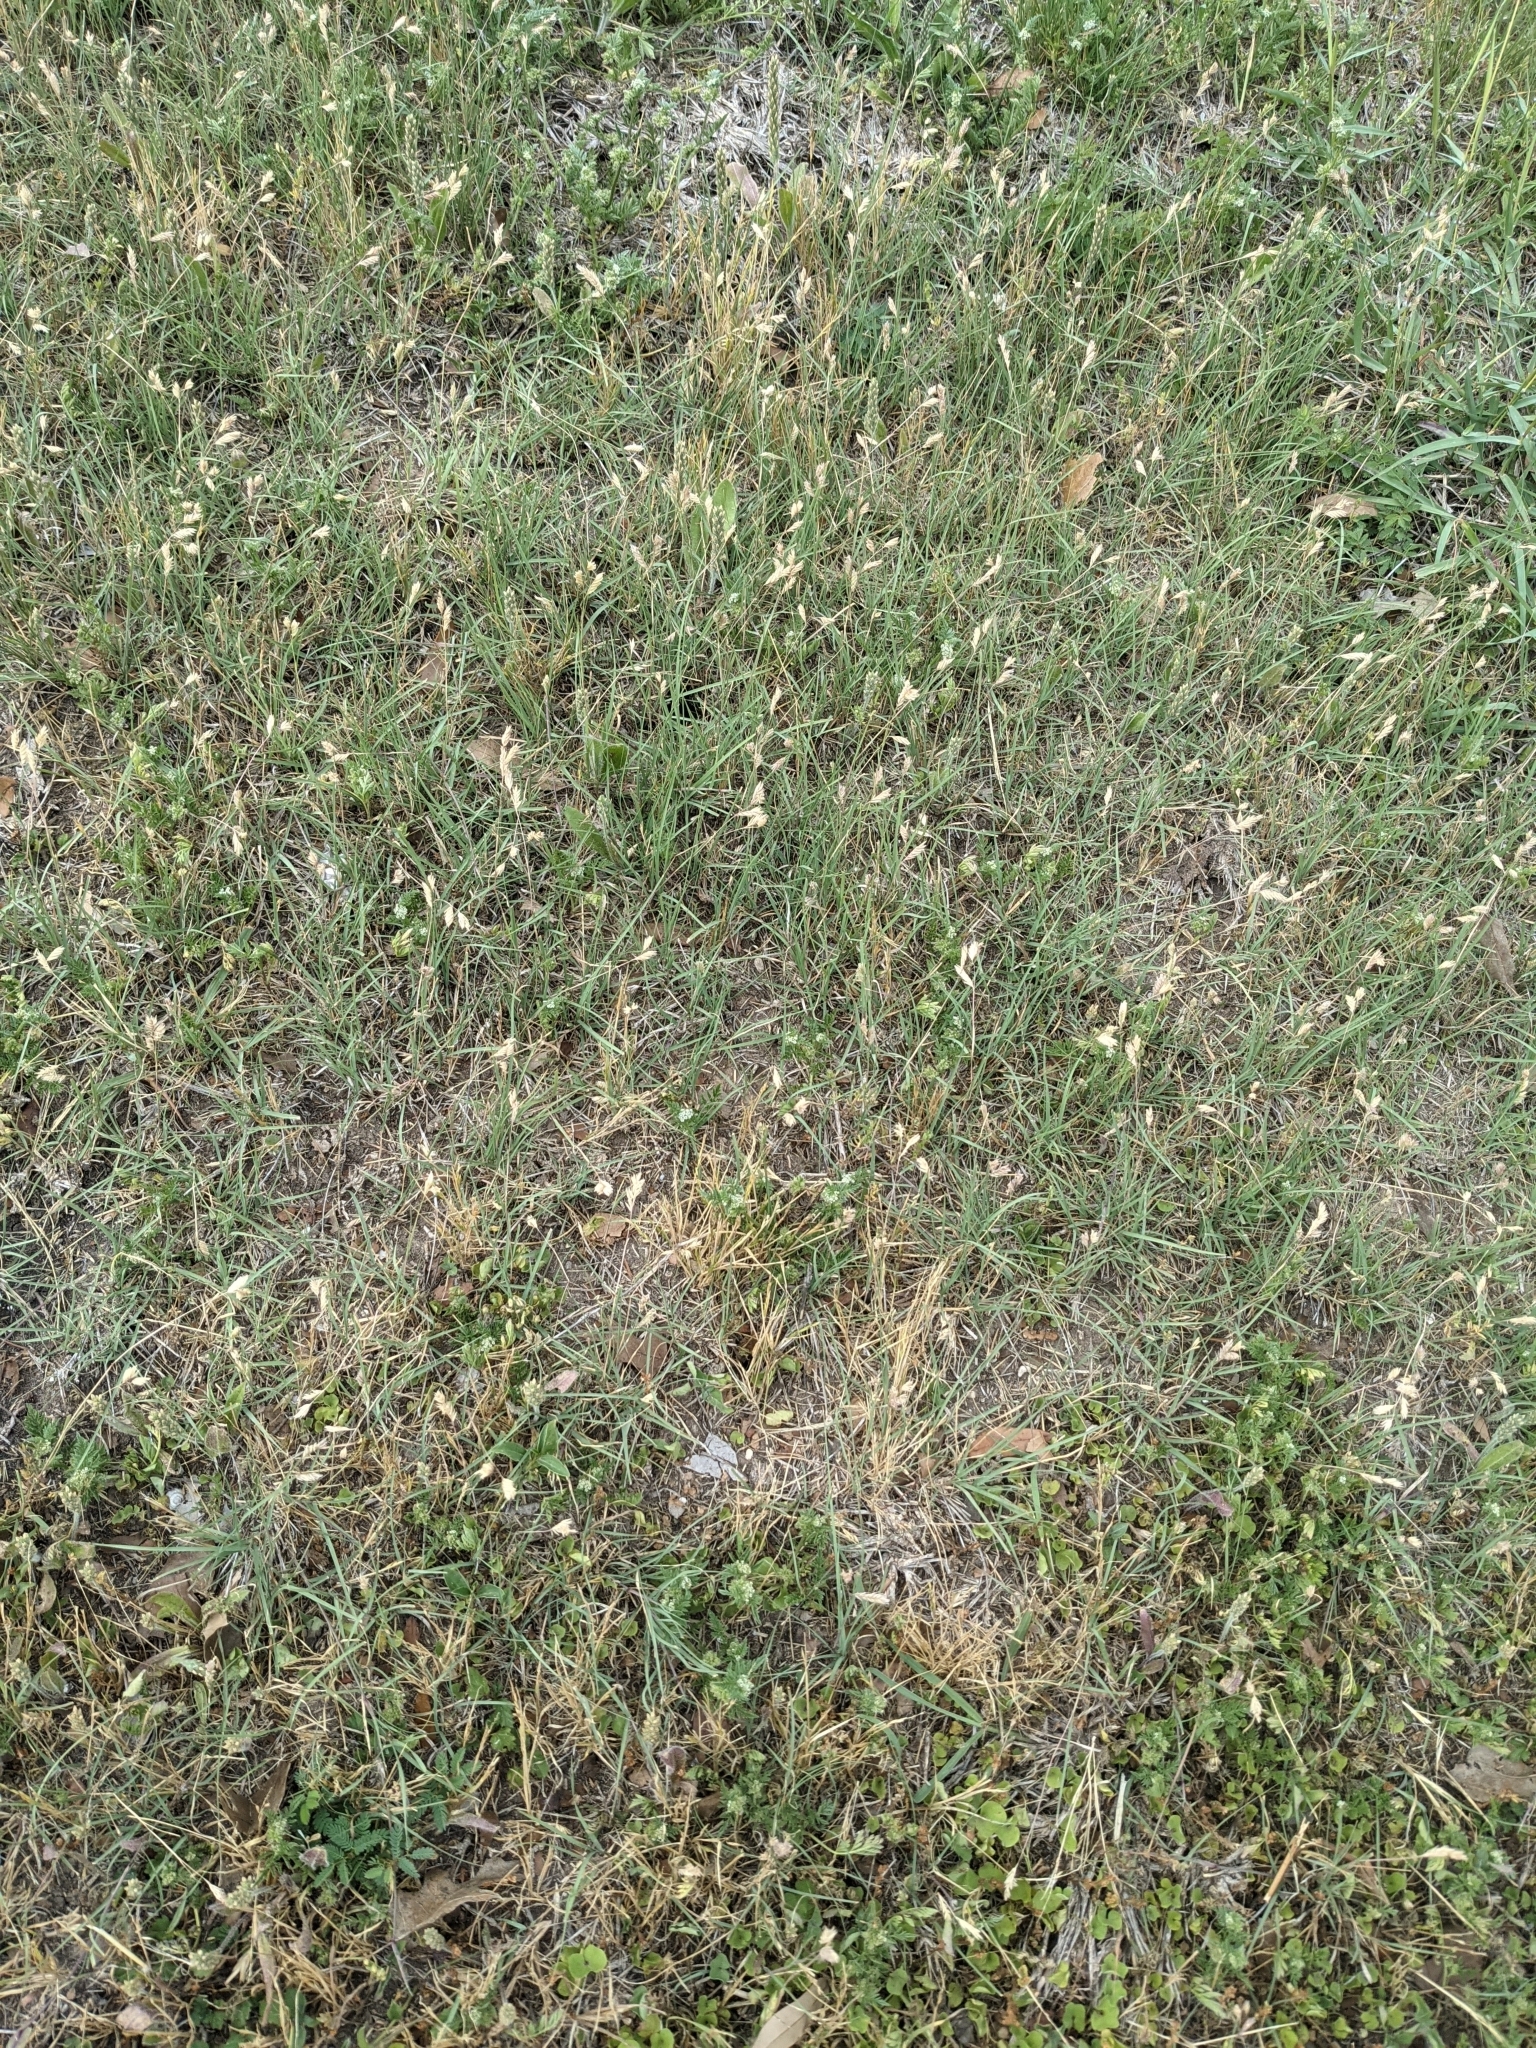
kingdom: Plantae
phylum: Tracheophyta
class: Liliopsida
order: Poales
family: Poaceae
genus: Bouteloua
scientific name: Bouteloua dactyloides
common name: Buffalo grass
